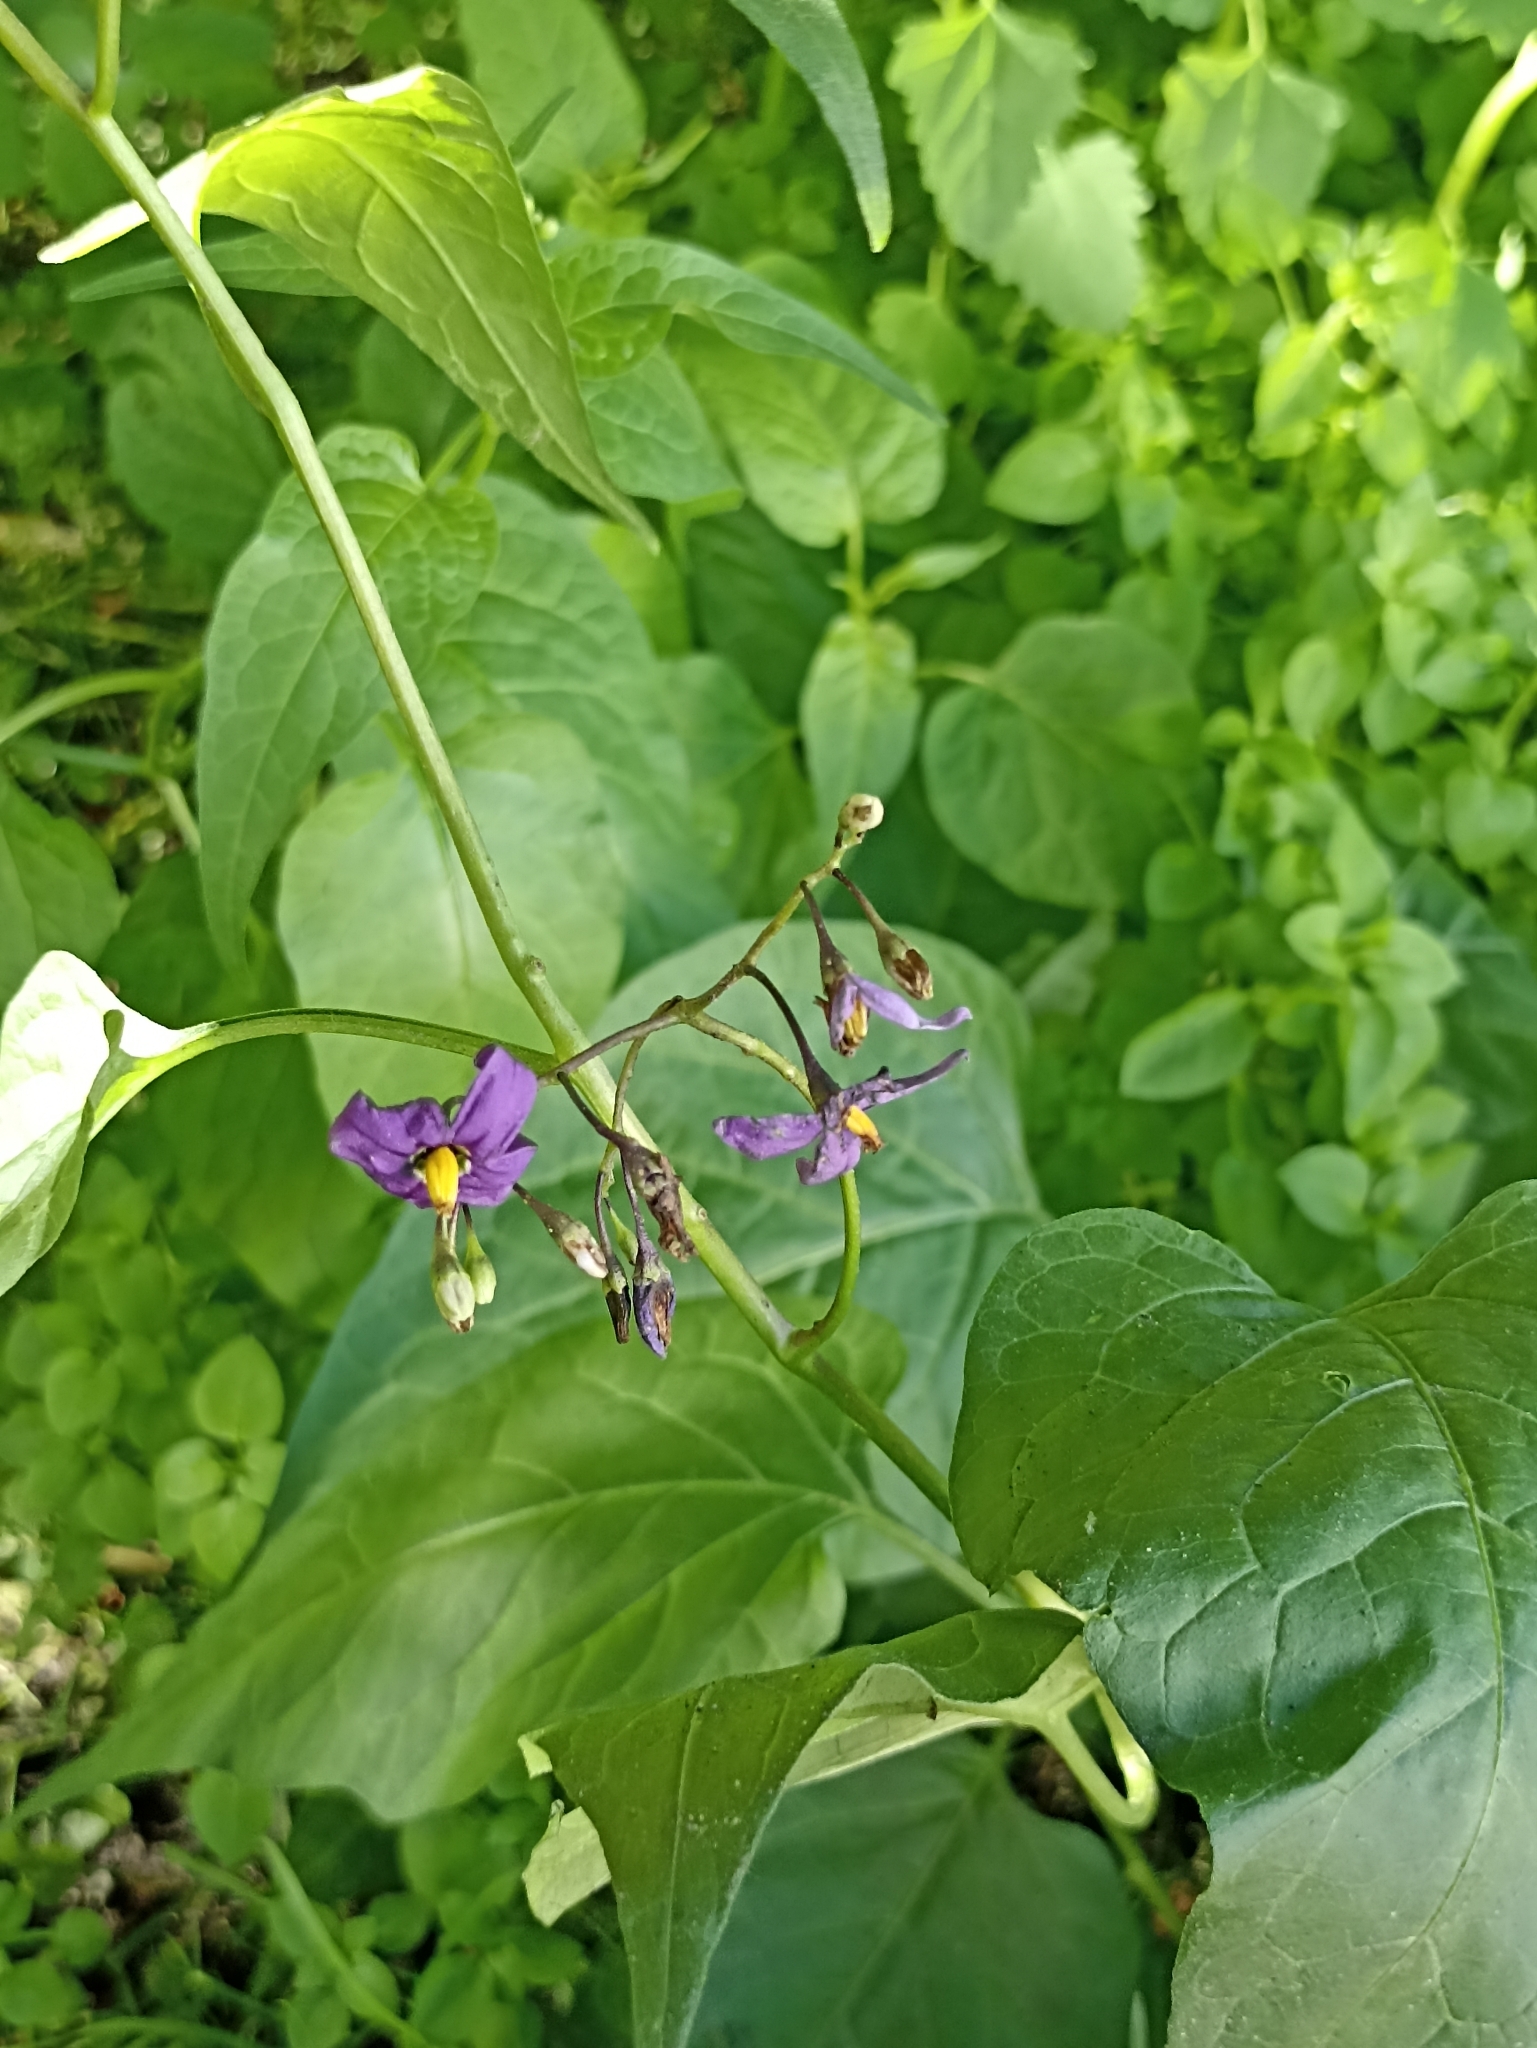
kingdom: Plantae
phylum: Tracheophyta
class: Magnoliopsida
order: Solanales
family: Solanaceae
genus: Solanum
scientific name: Solanum dulcamara
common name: Climbing nightshade
